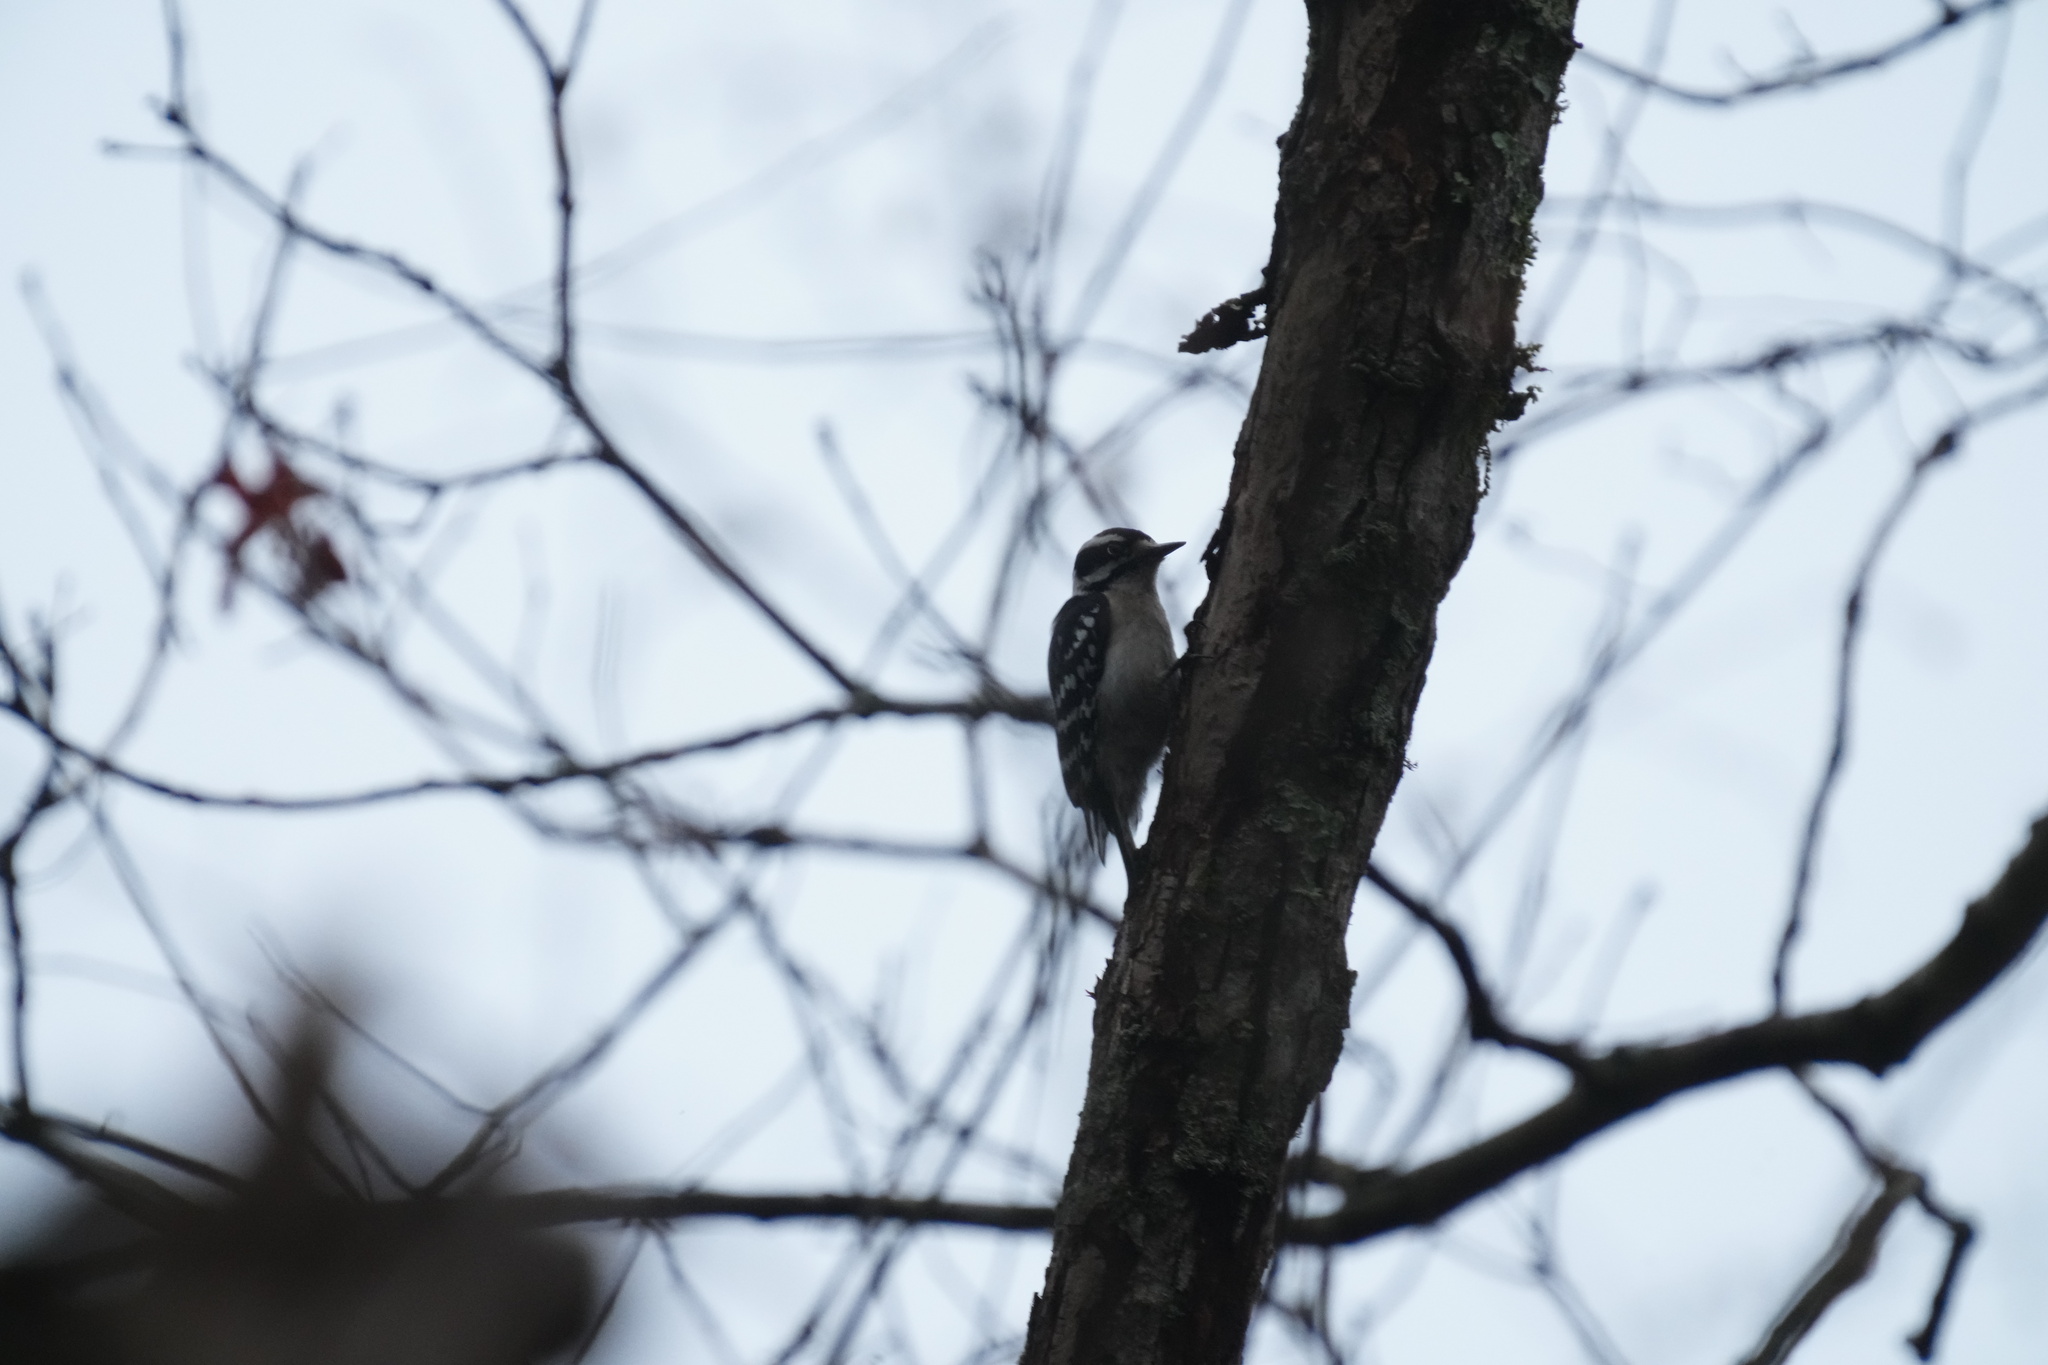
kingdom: Animalia
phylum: Chordata
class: Aves
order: Piciformes
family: Picidae
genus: Dryobates
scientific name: Dryobates pubescens
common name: Downy woodpecker
